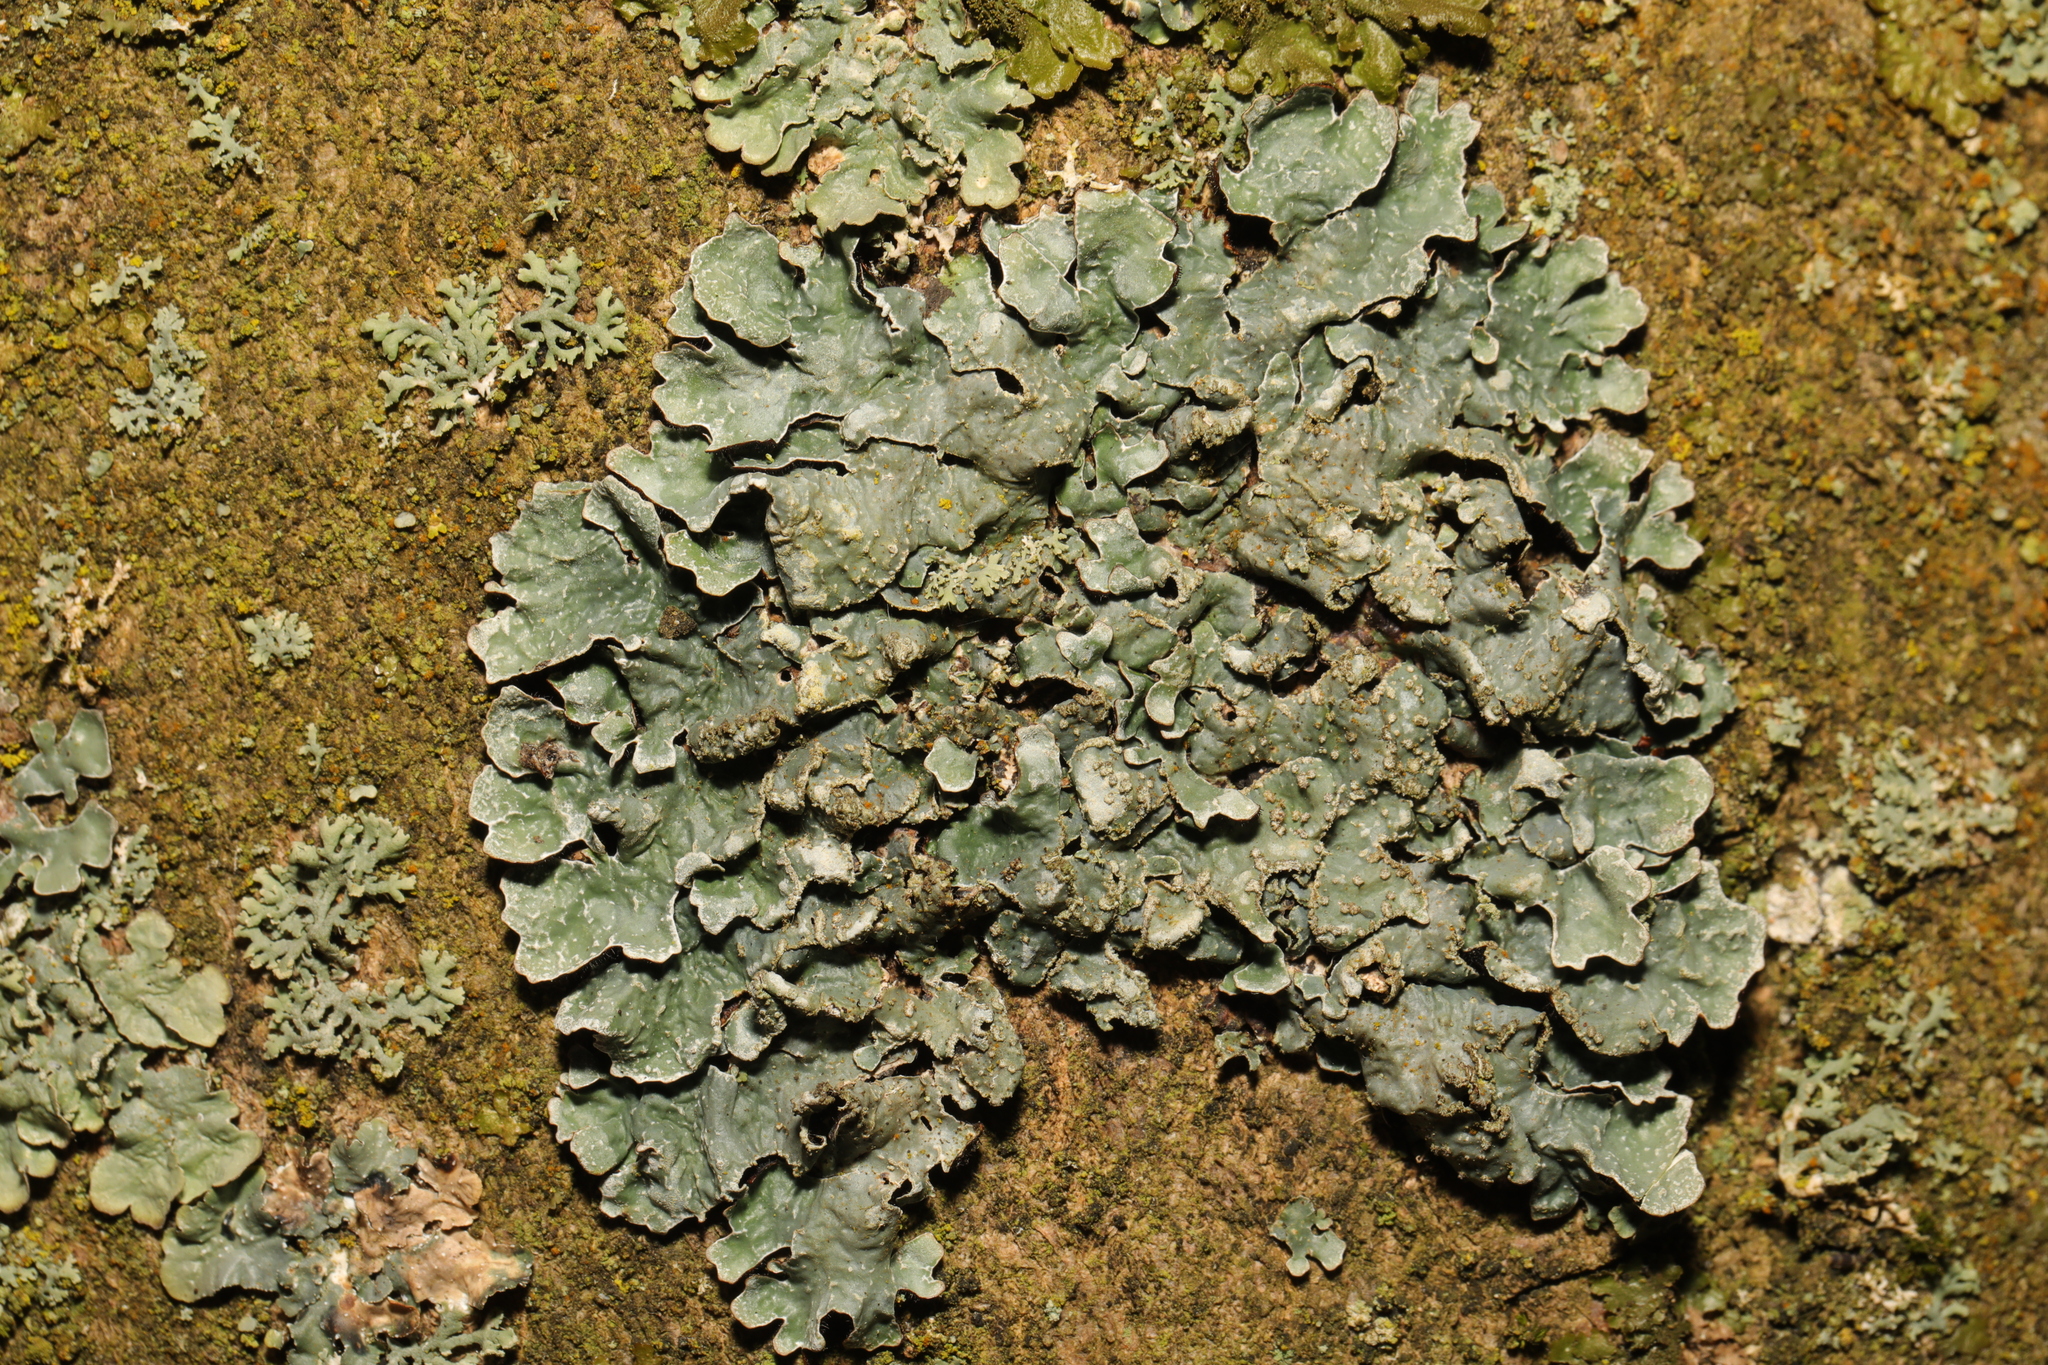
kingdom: Fungi
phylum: Ascomycota
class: Lecanoromycetes
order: Lecanorales
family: Parmeliaceae
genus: Parmelia
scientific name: Parmelia sulcata
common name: Netted shield lichen
